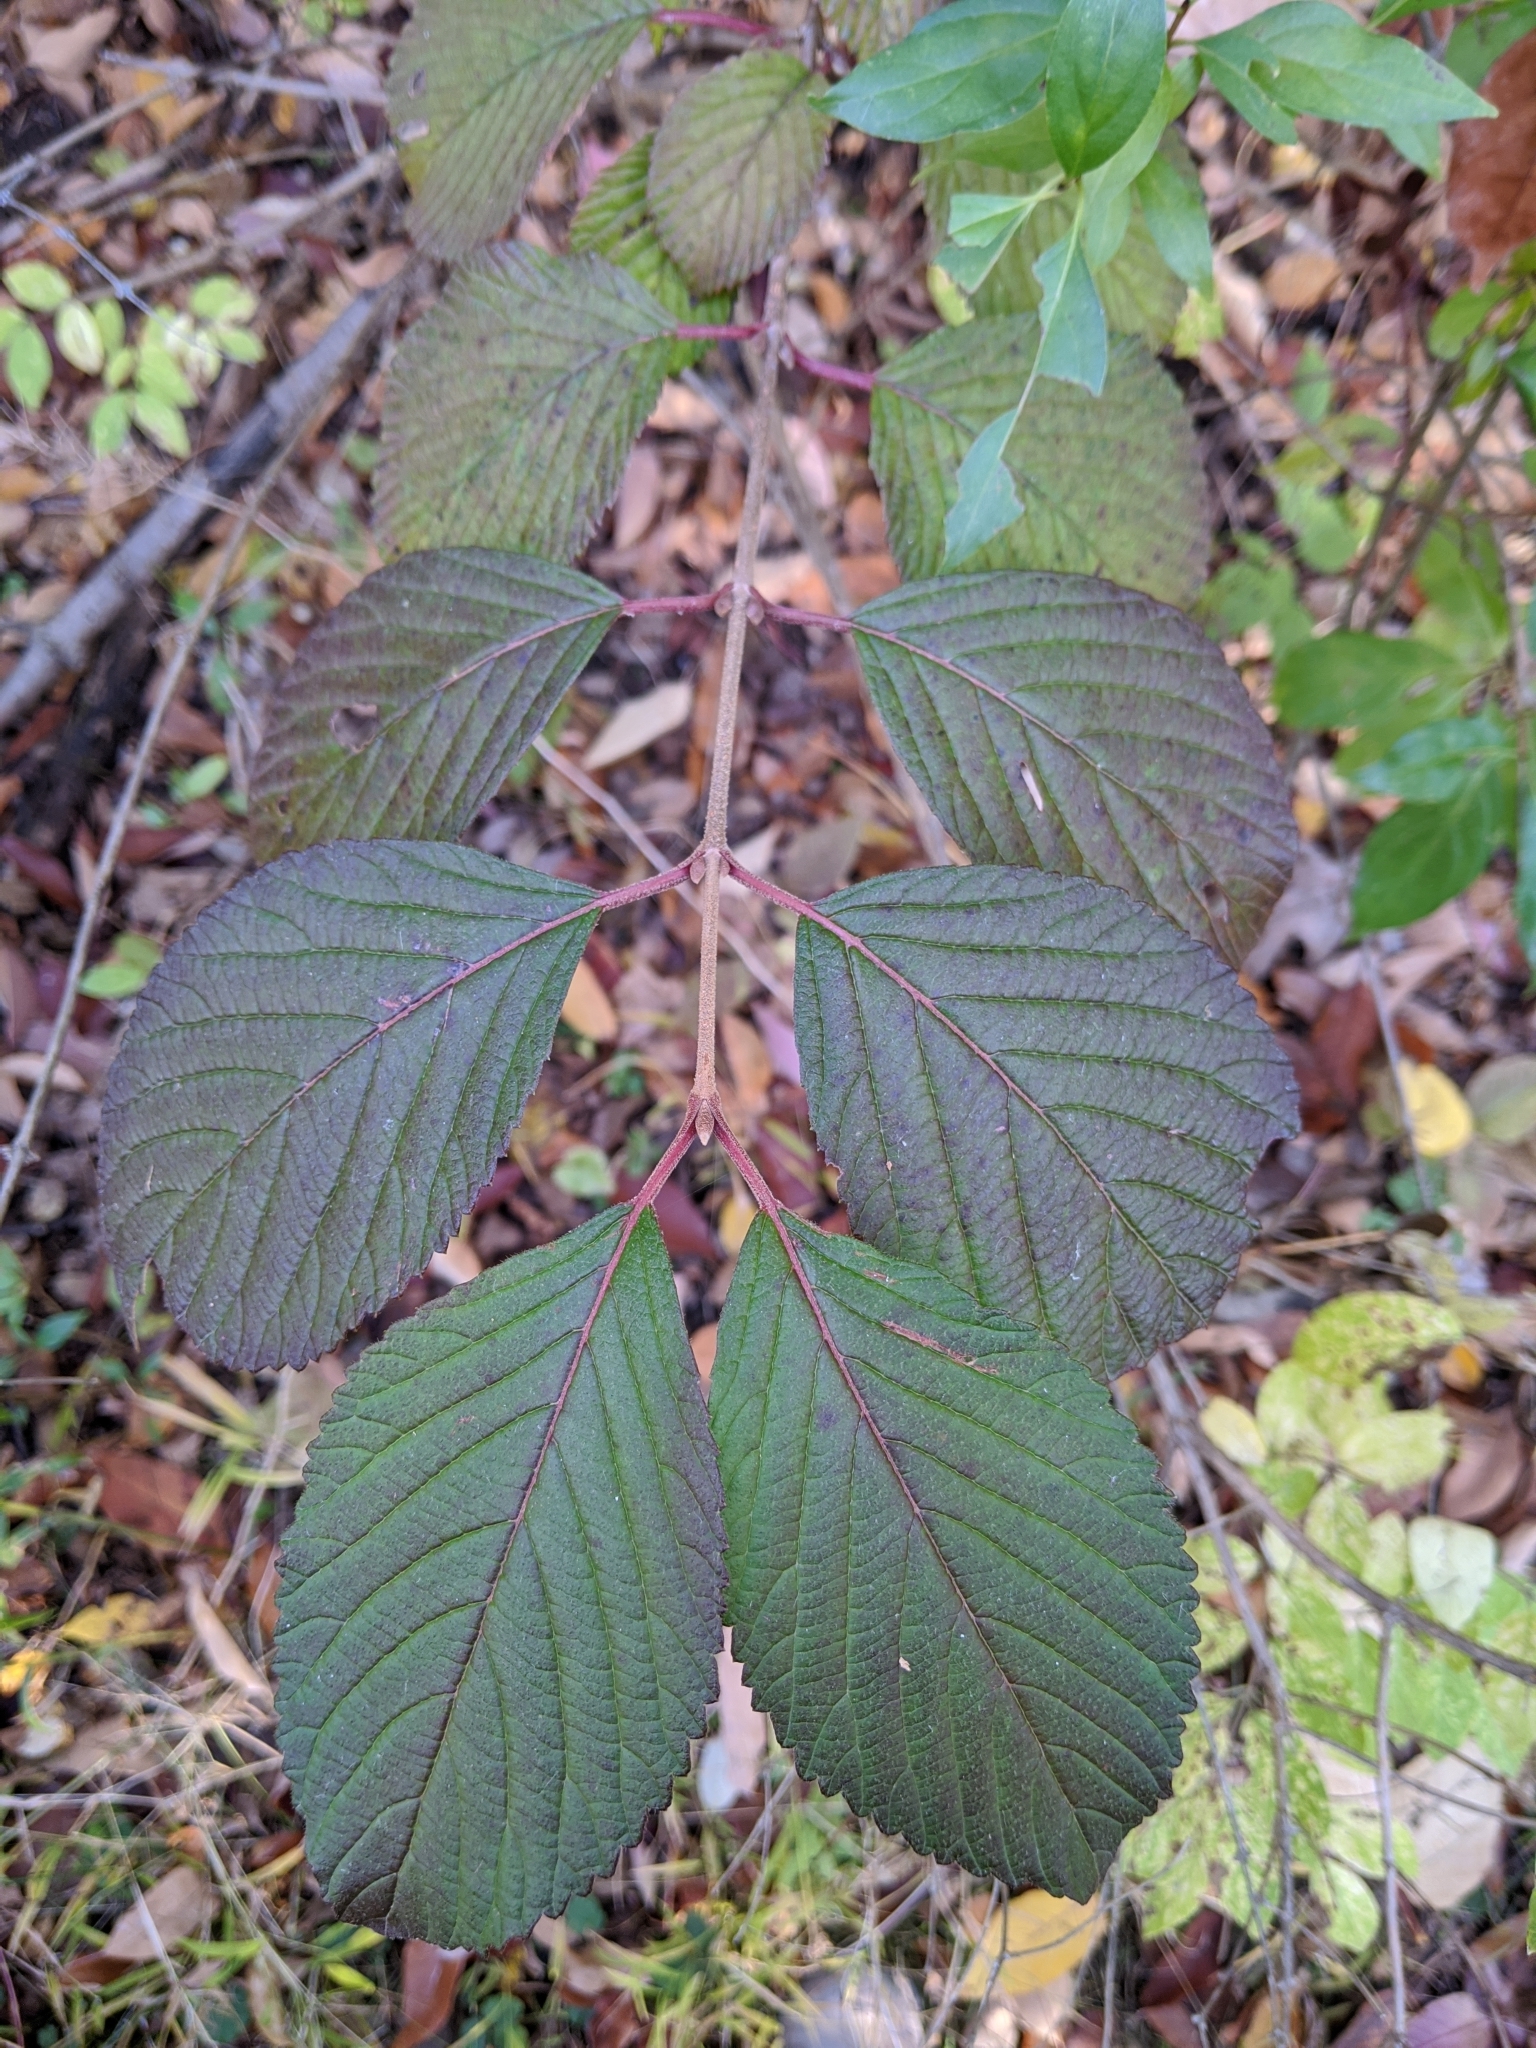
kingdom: Plantae
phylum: Tracheophyta
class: Magnoliopsida
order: Dipsacales
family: Viburnaceae
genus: Viburnum
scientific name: Viburnum plicatum
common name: Japanese snowball
